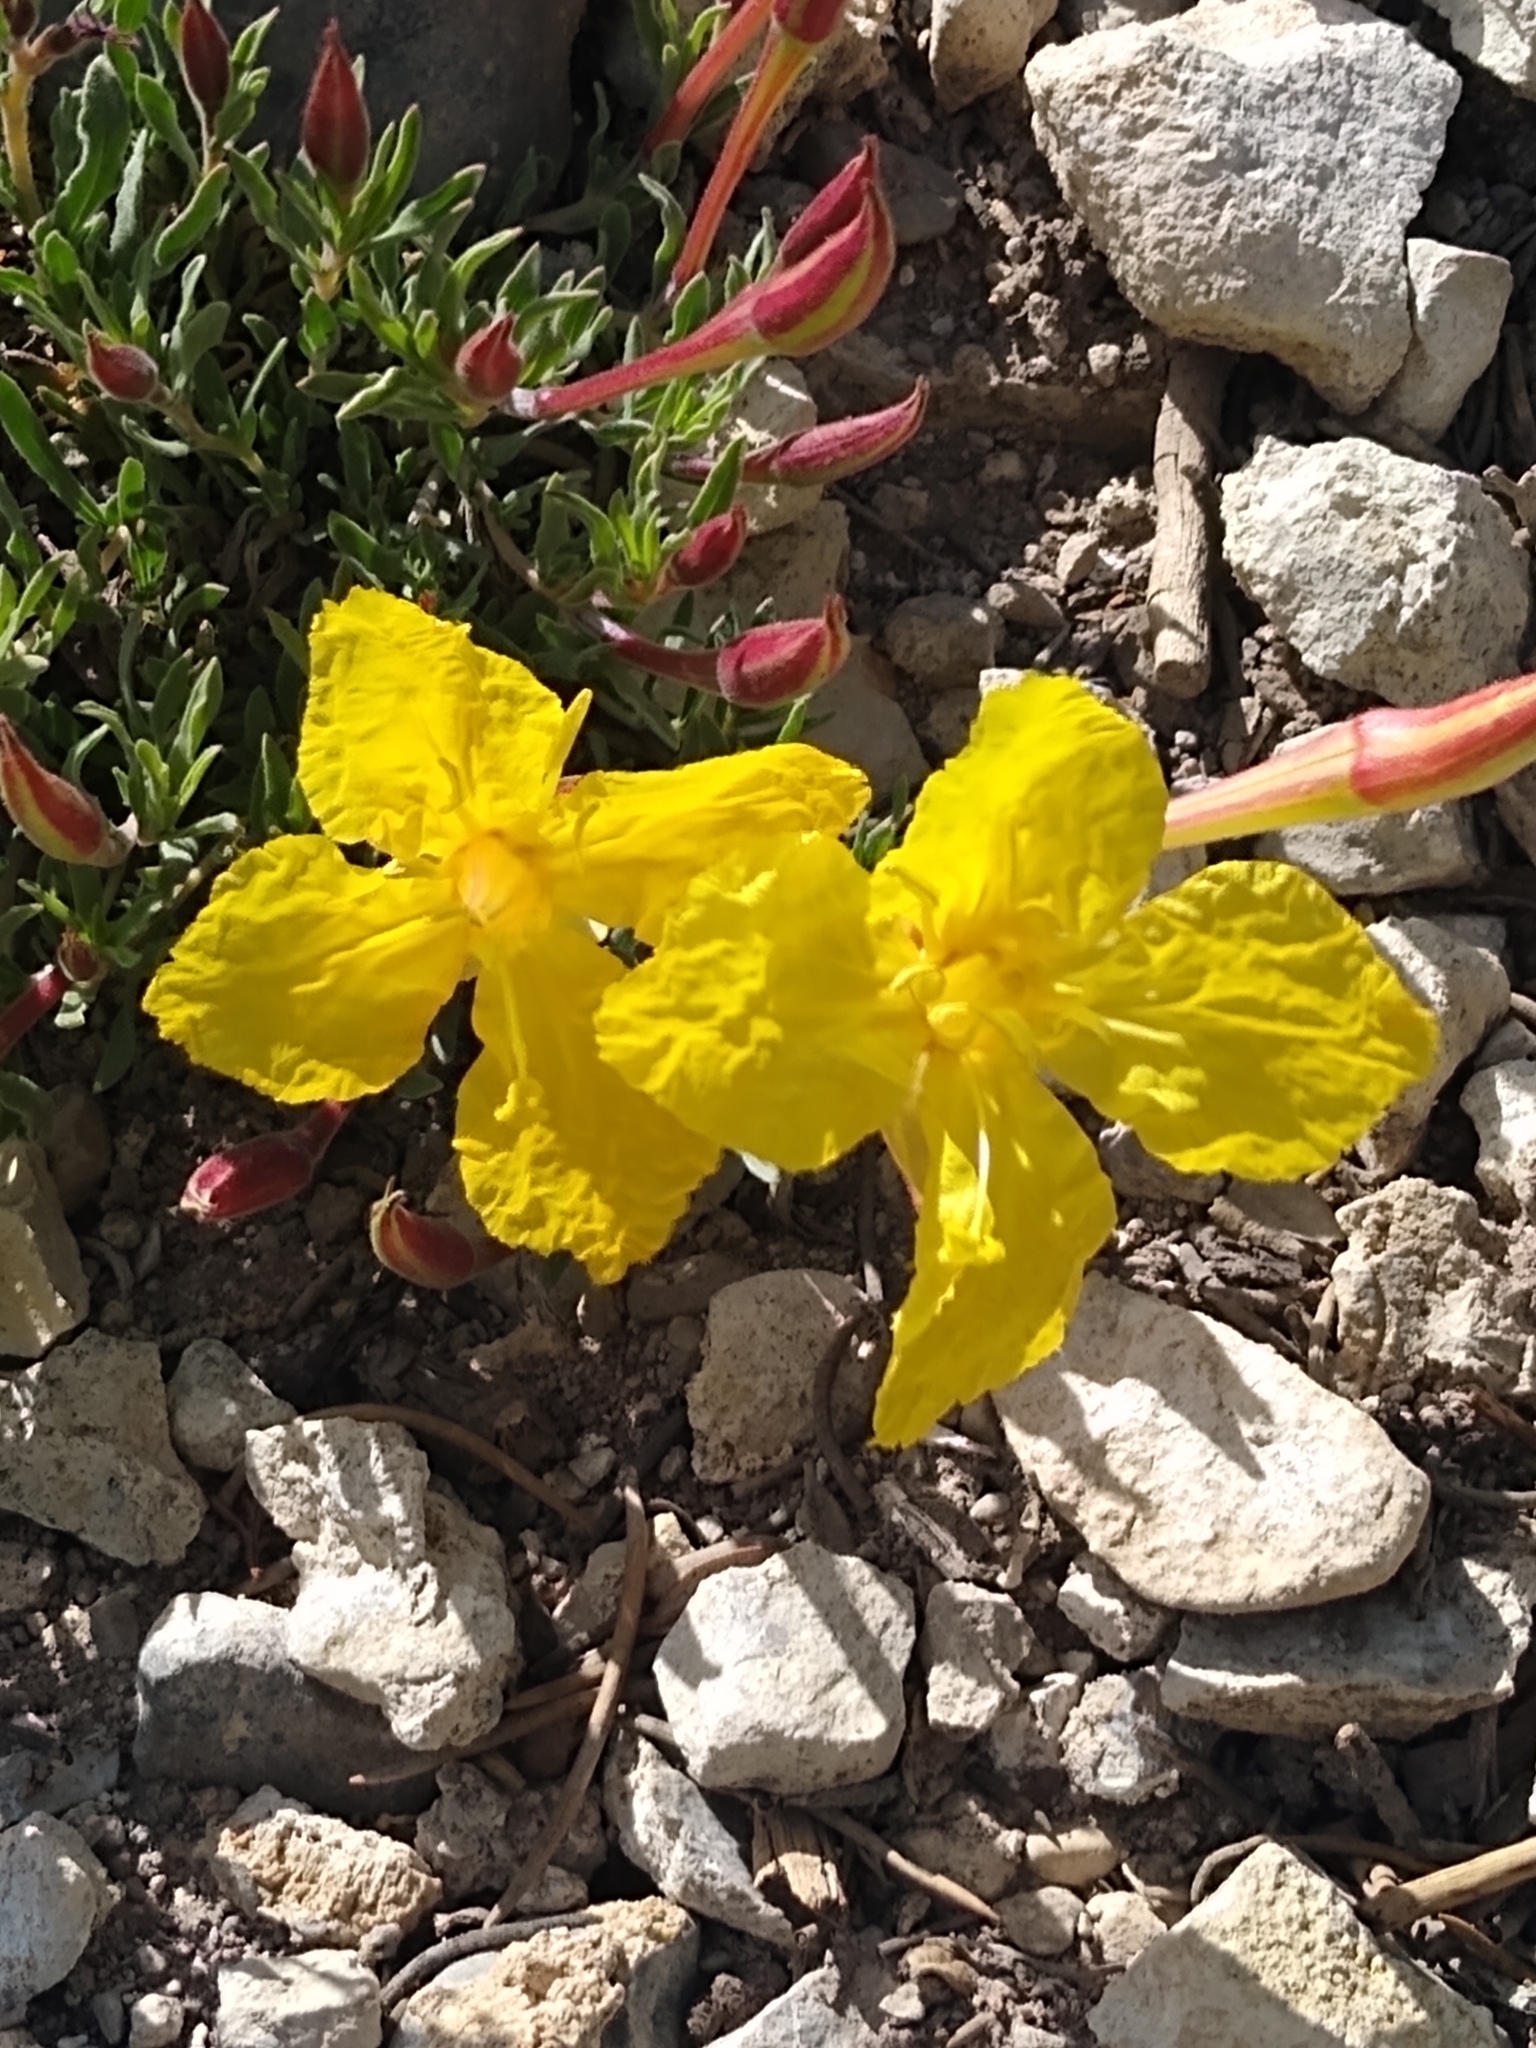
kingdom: Plantae
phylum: Tracheophyta
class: Magnoliopsida
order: Myrtales
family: Onagraceae
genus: Oenothera
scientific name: Oenothera lavandulifolia
